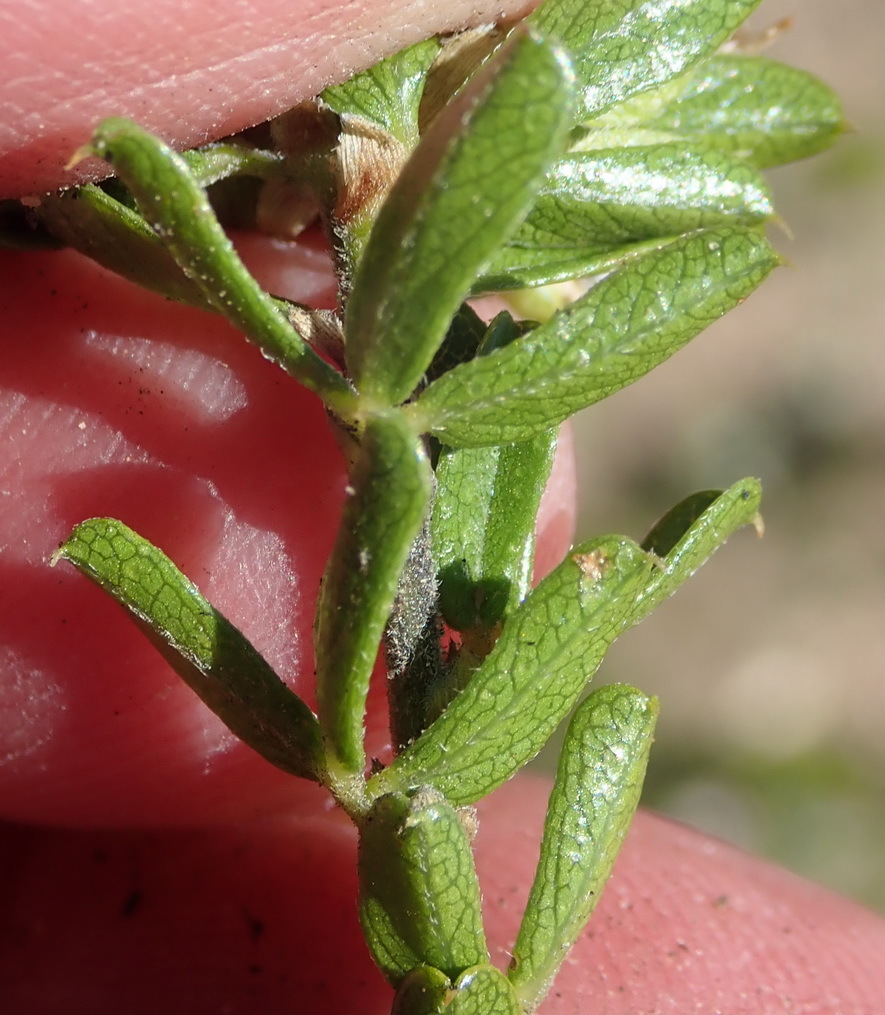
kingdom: Plantae
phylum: Tracheophyta
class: Magnoliopsida
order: Fabales
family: Fabaceae
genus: Psoralea
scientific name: Psoralea heterosepala
